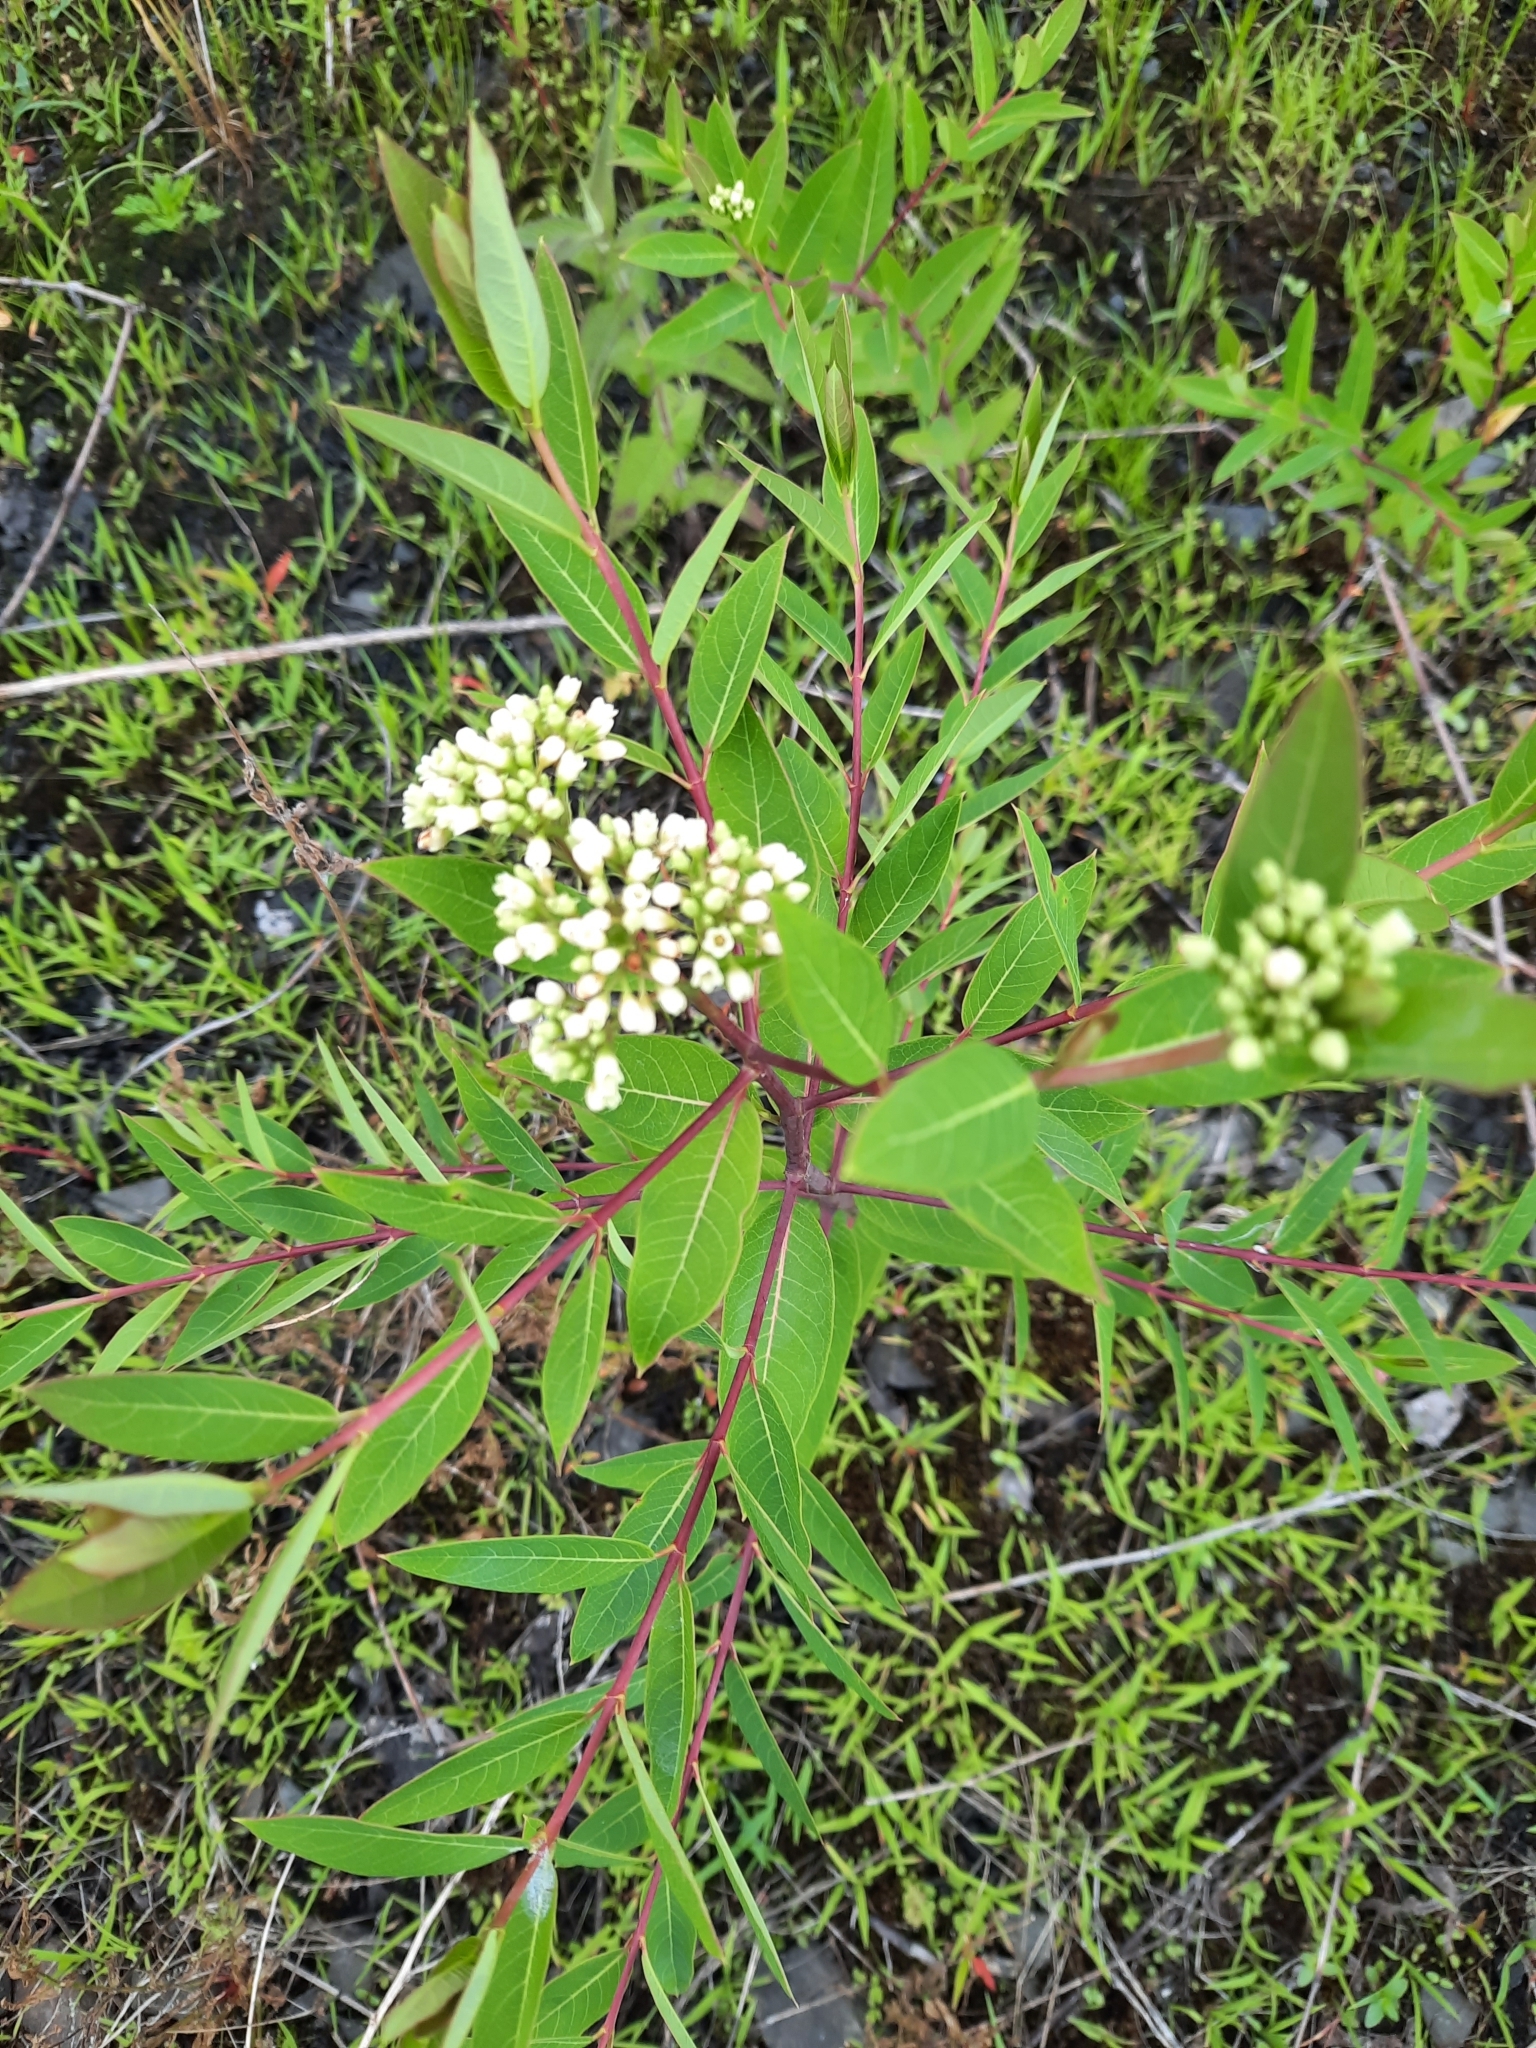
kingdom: Plantae
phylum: Tracheophyta
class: Magnoliopsida
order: Gentianales
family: Apocynaceae
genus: Apocynum
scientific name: Apocynum cannabinum
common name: Hemp dogbane
